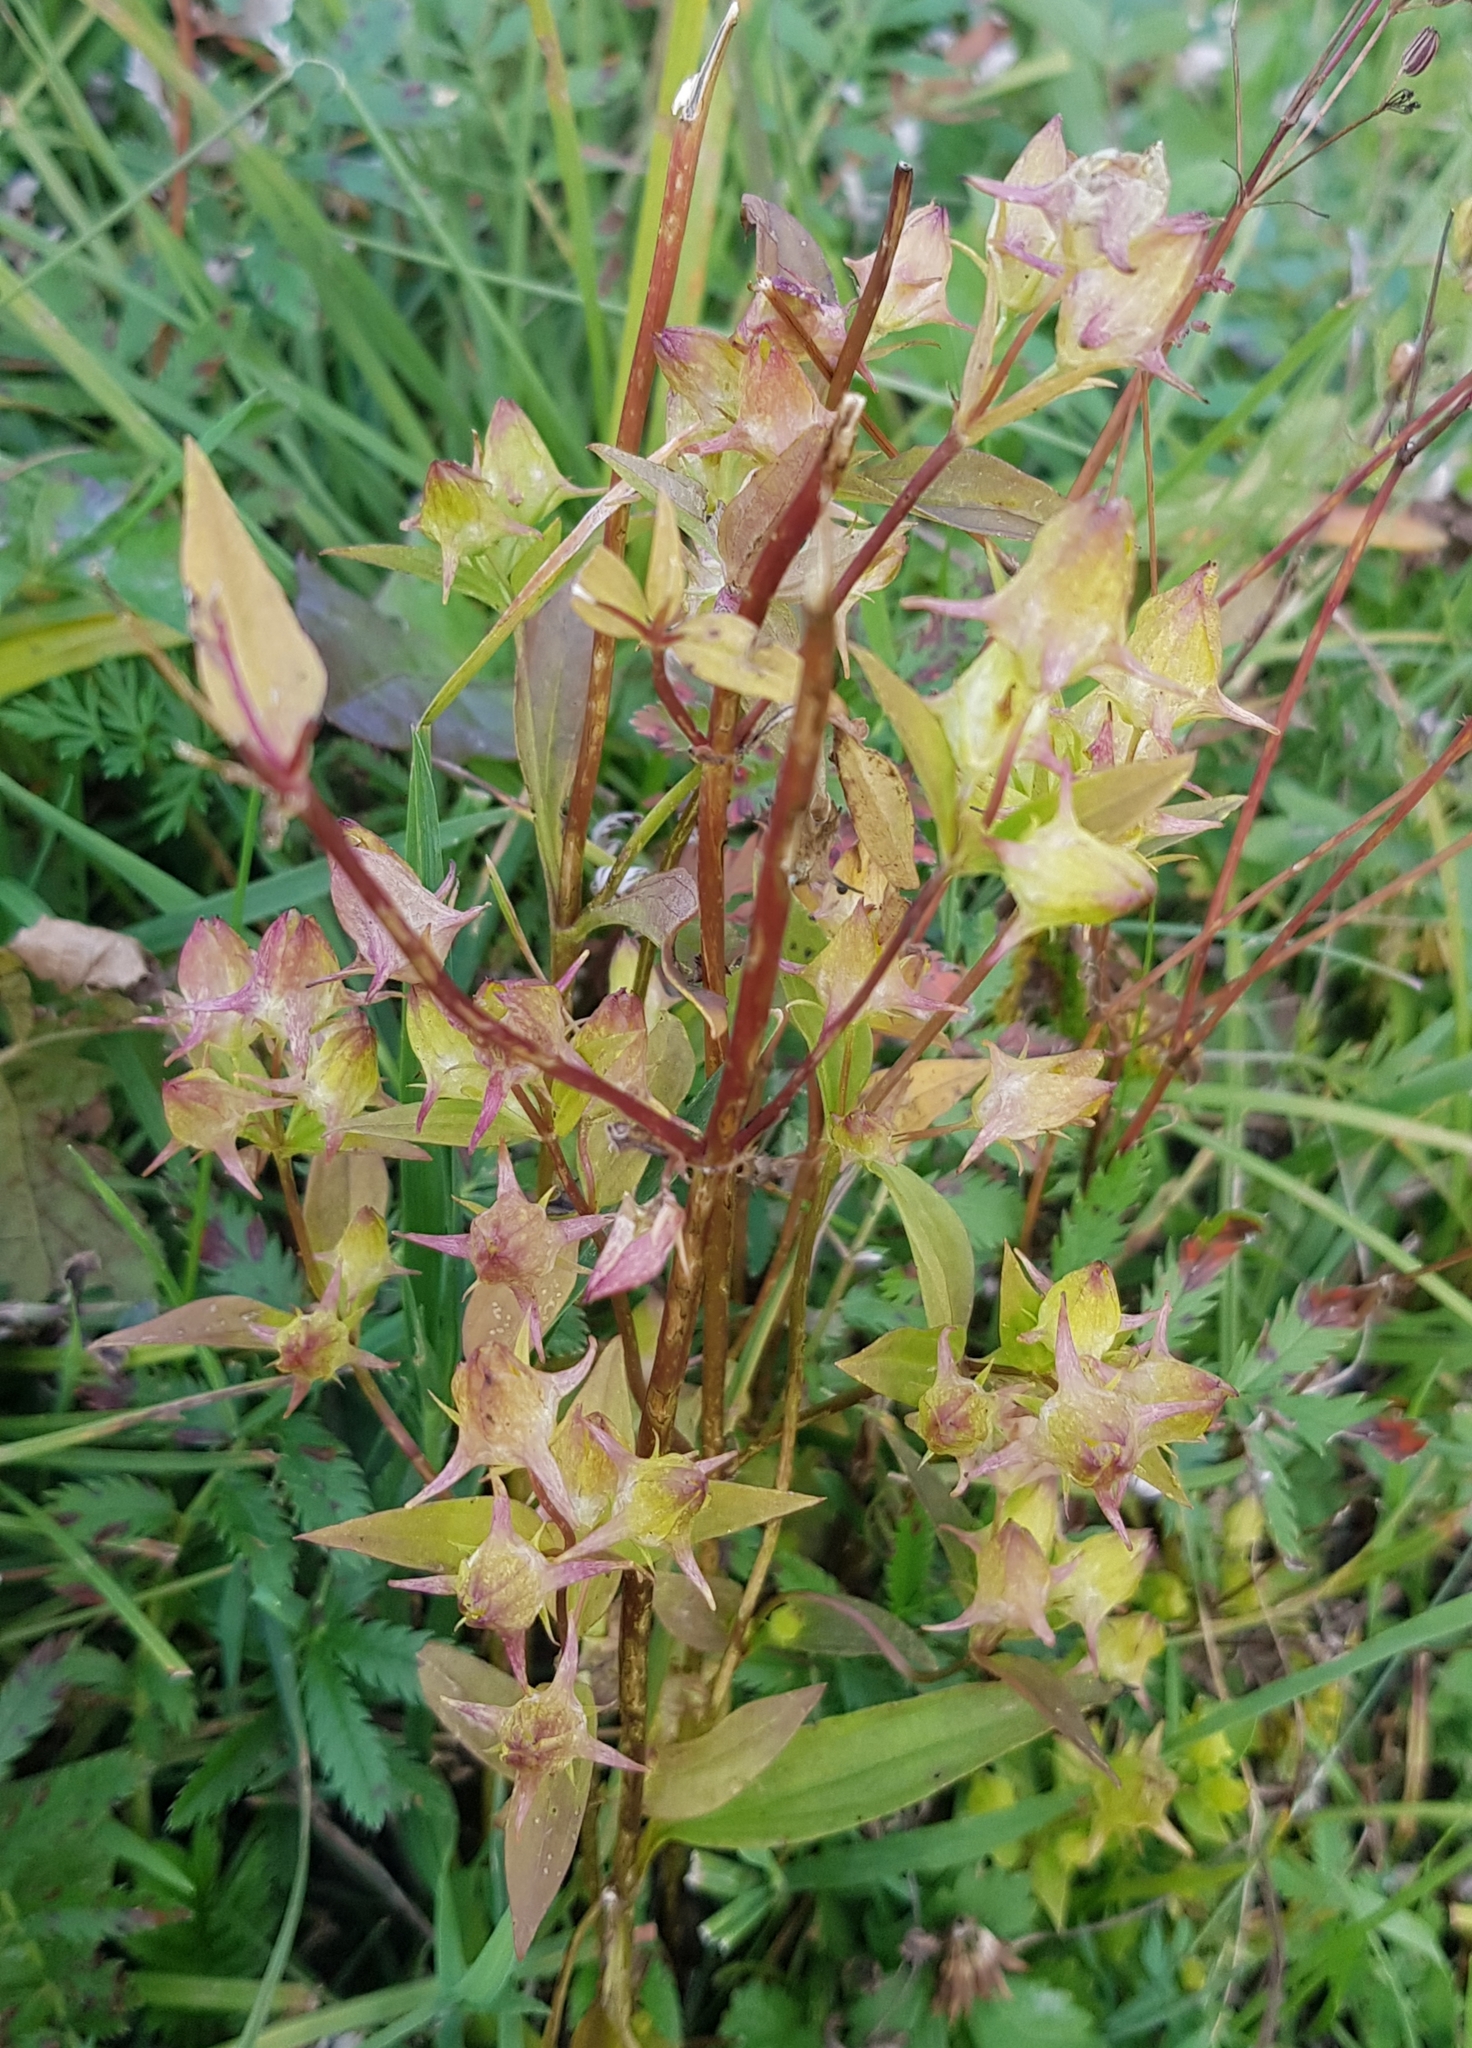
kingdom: Plantae
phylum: Tracheophyta
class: Magnoliopsida
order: Gentianales
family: Gentianaceae
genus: Halenia
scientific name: Halenia corniculata
